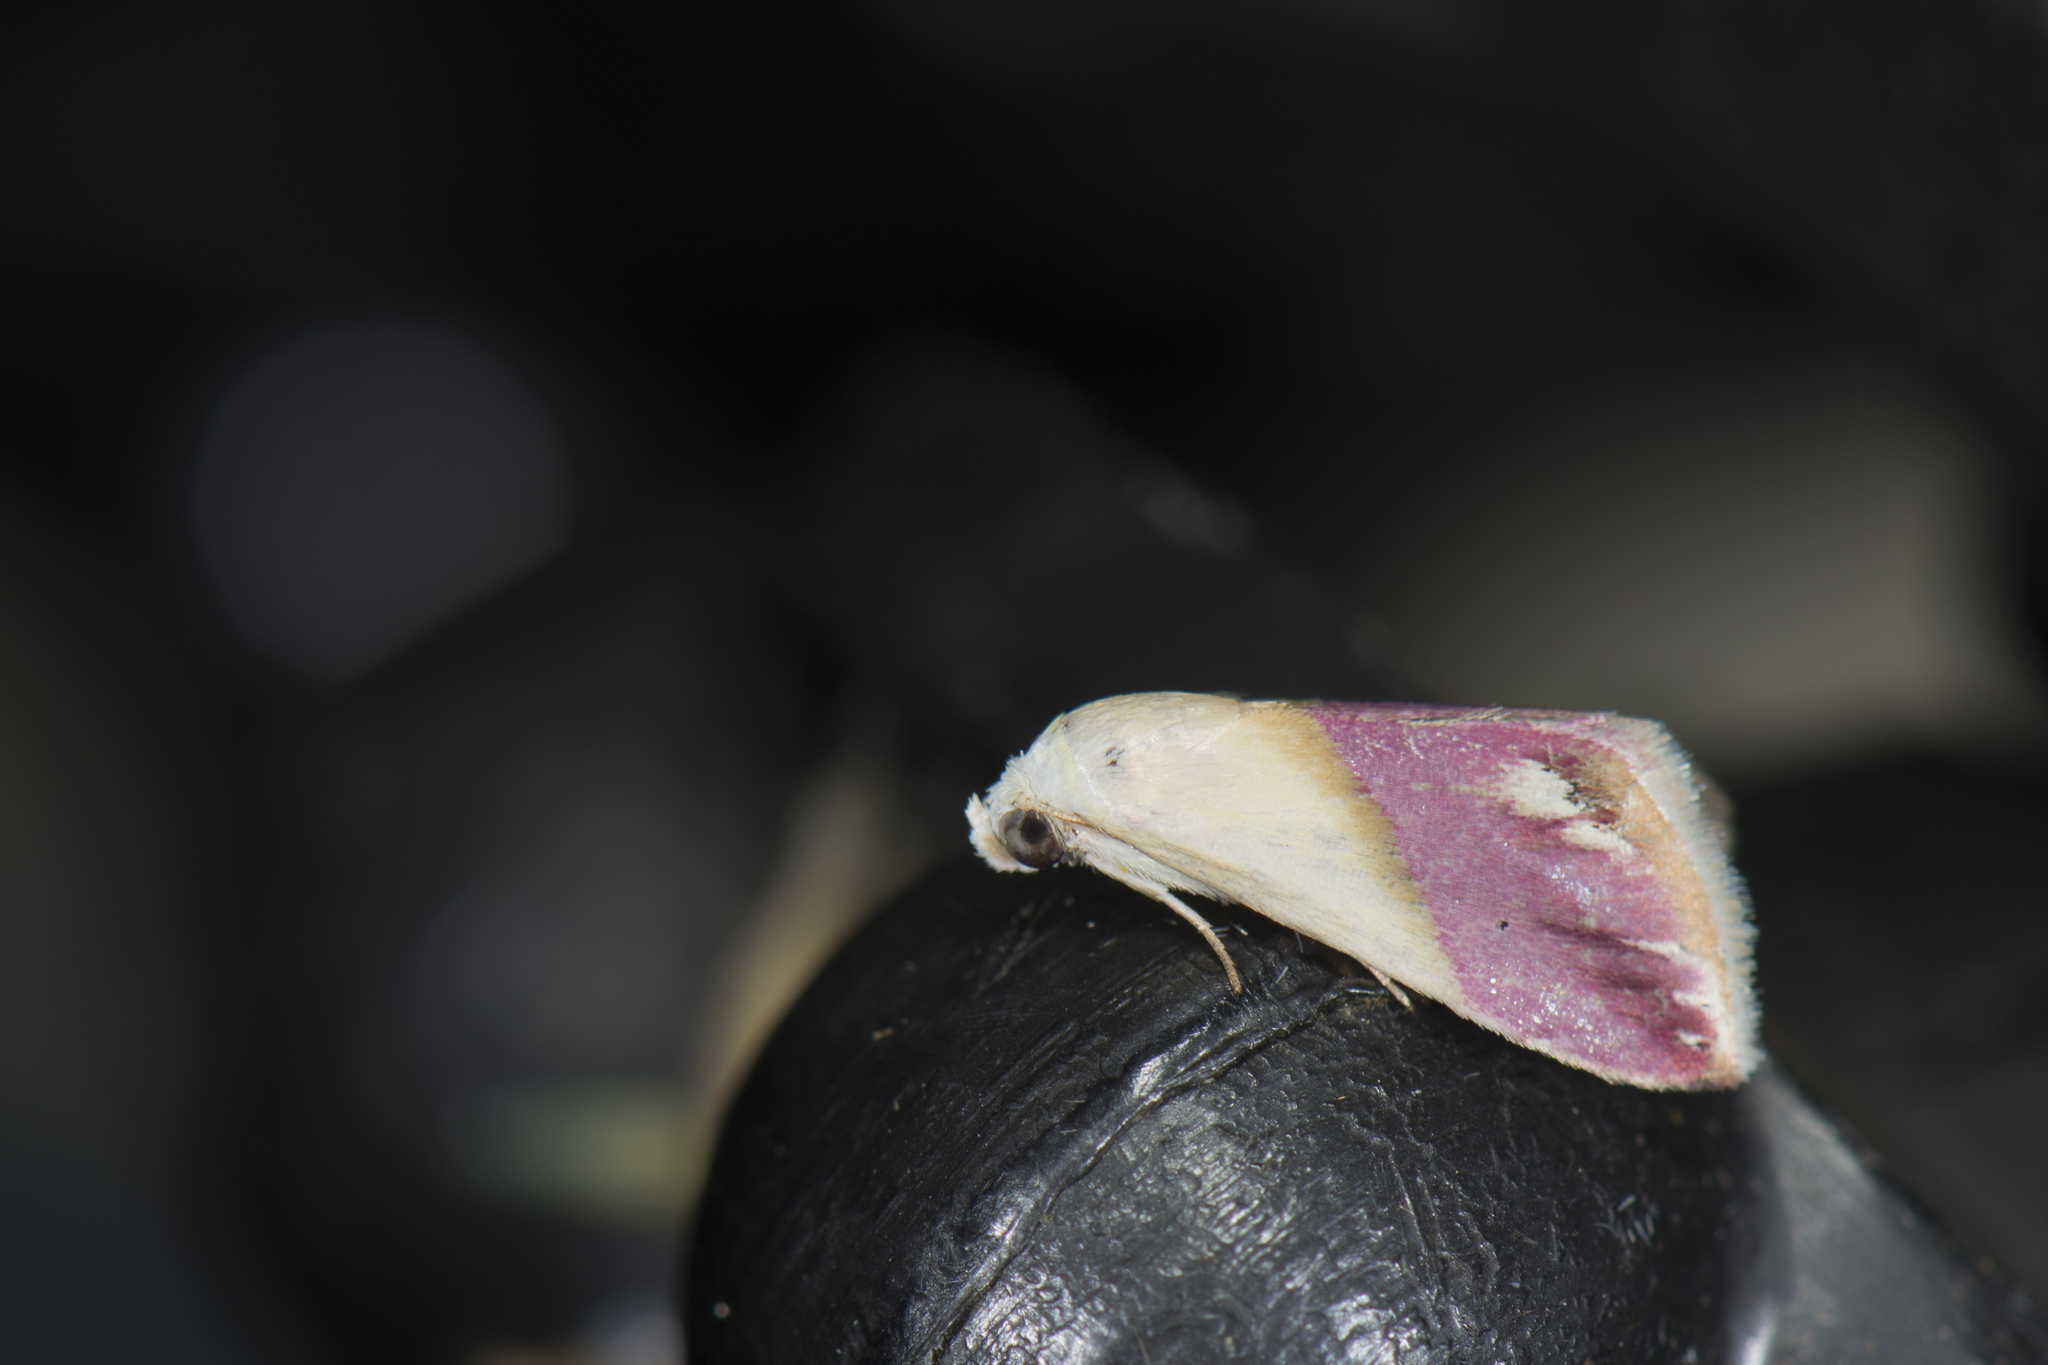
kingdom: Animalia
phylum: Arthropoda
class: Insecta
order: Lepidoptera
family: Noctuidae
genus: Eublemma
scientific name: Eublemma cochylioides
